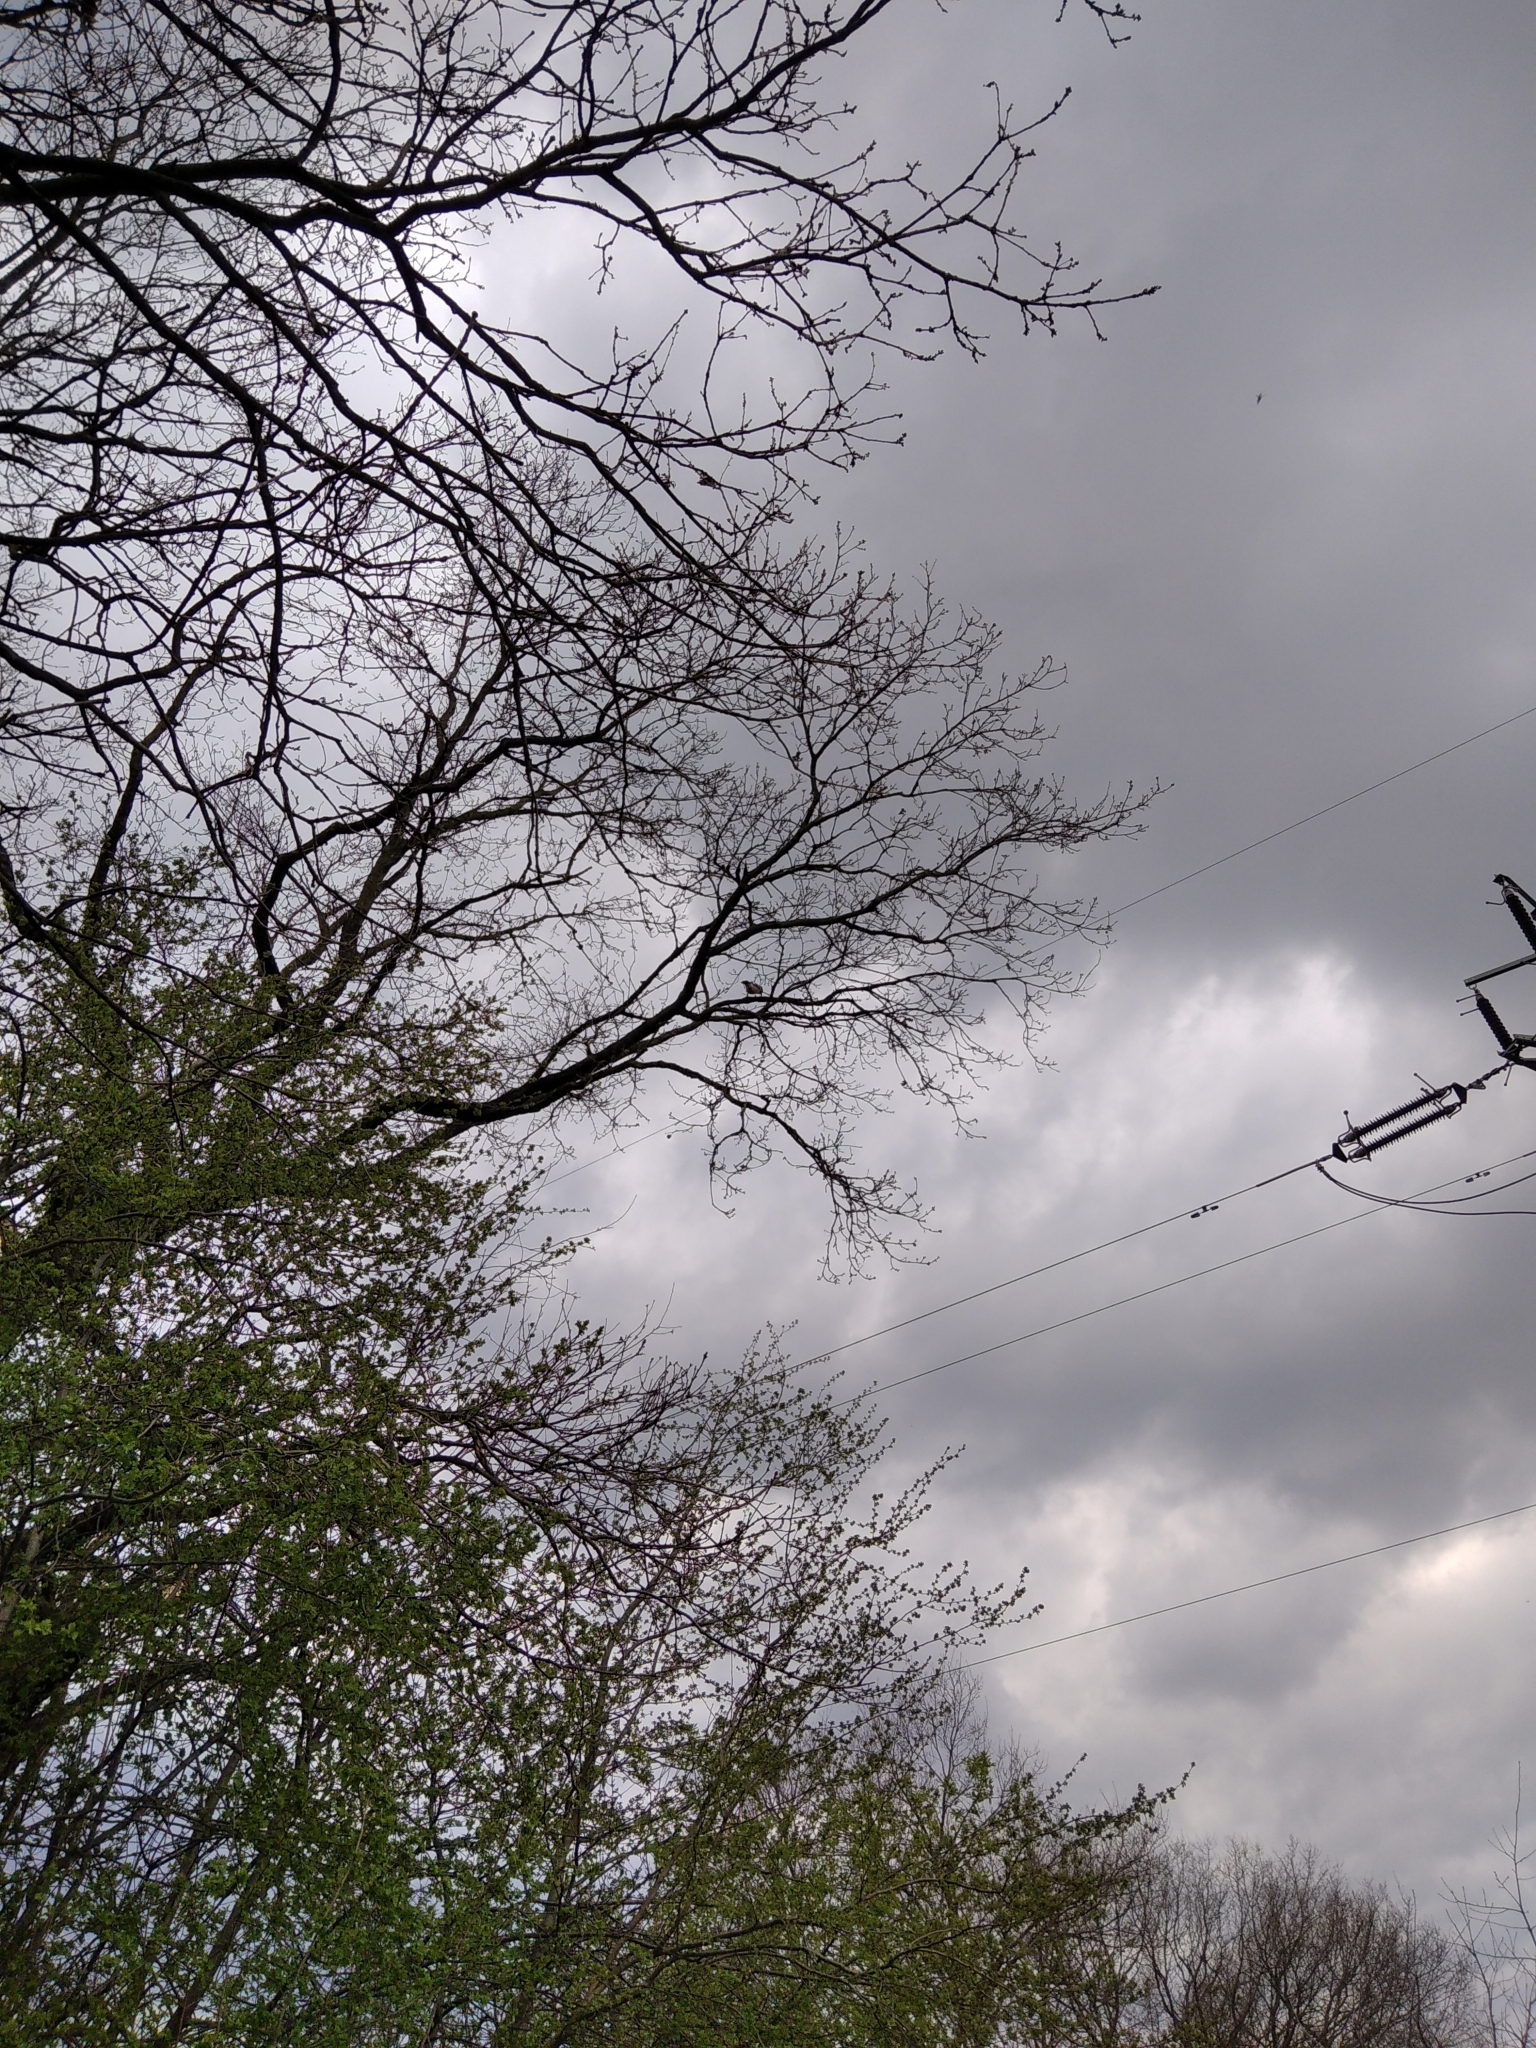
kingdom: Animalia
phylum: Chordata
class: Aves
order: Passeriformes
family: Corvidae
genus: Garrulus
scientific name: Garrulus glandarius
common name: Eurasian jay
